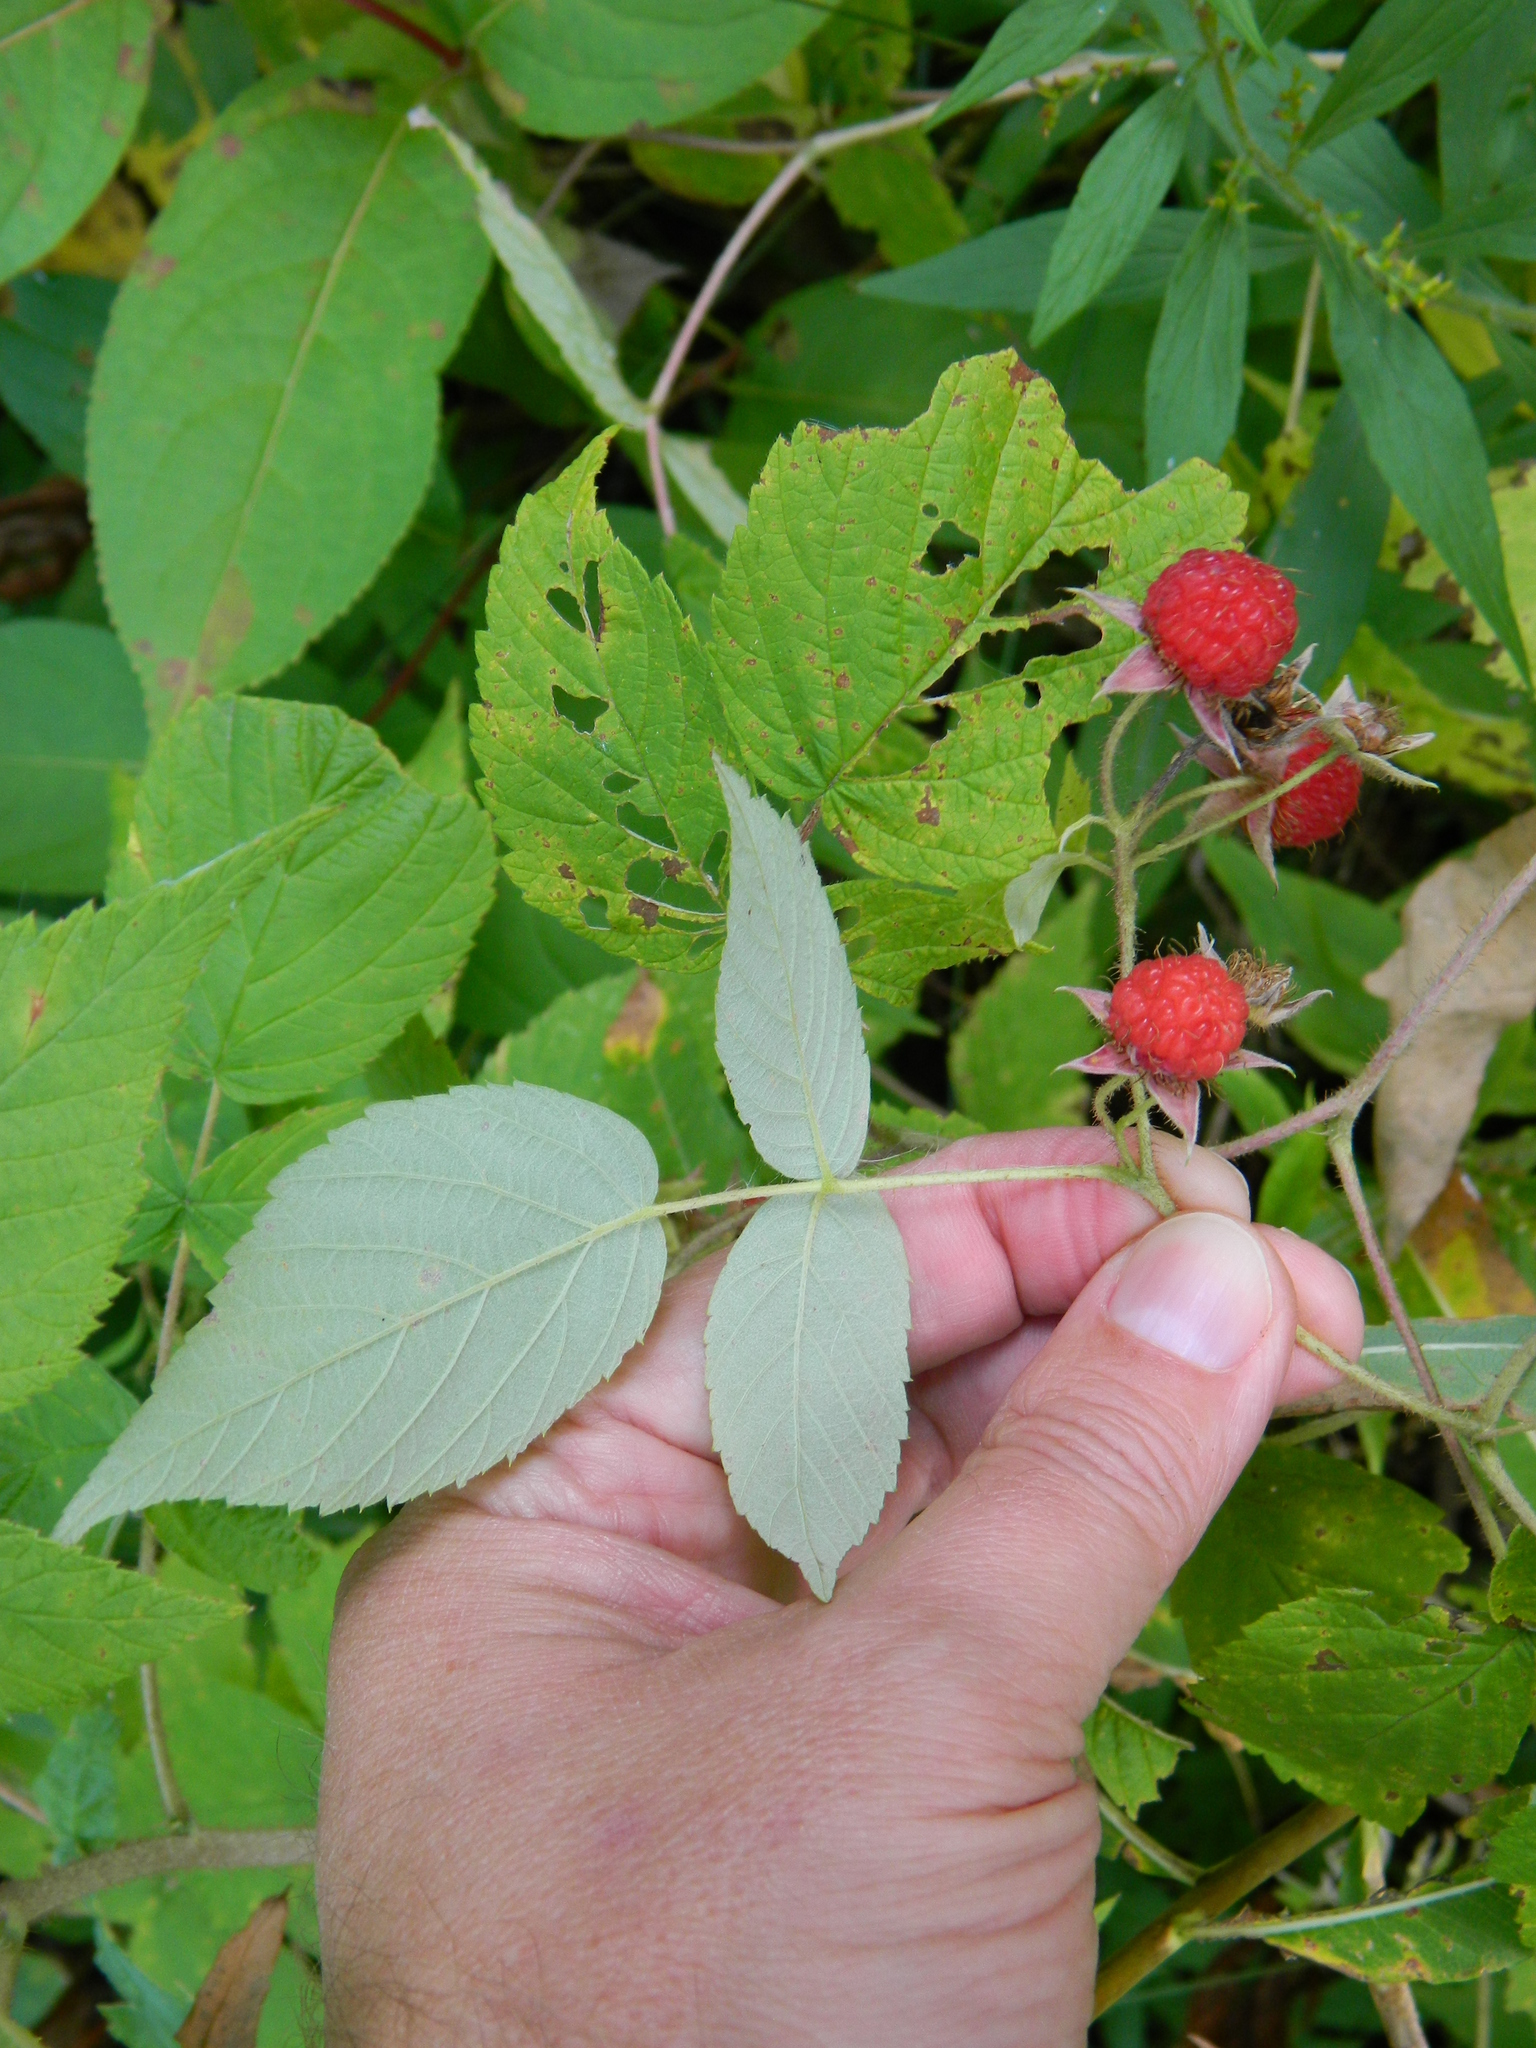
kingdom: Plantae
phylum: Tracheophyta
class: Magnoliopsida
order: Rosales
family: Rosaceae
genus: Rubus
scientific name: Rubus idaeus
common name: Raspberry
